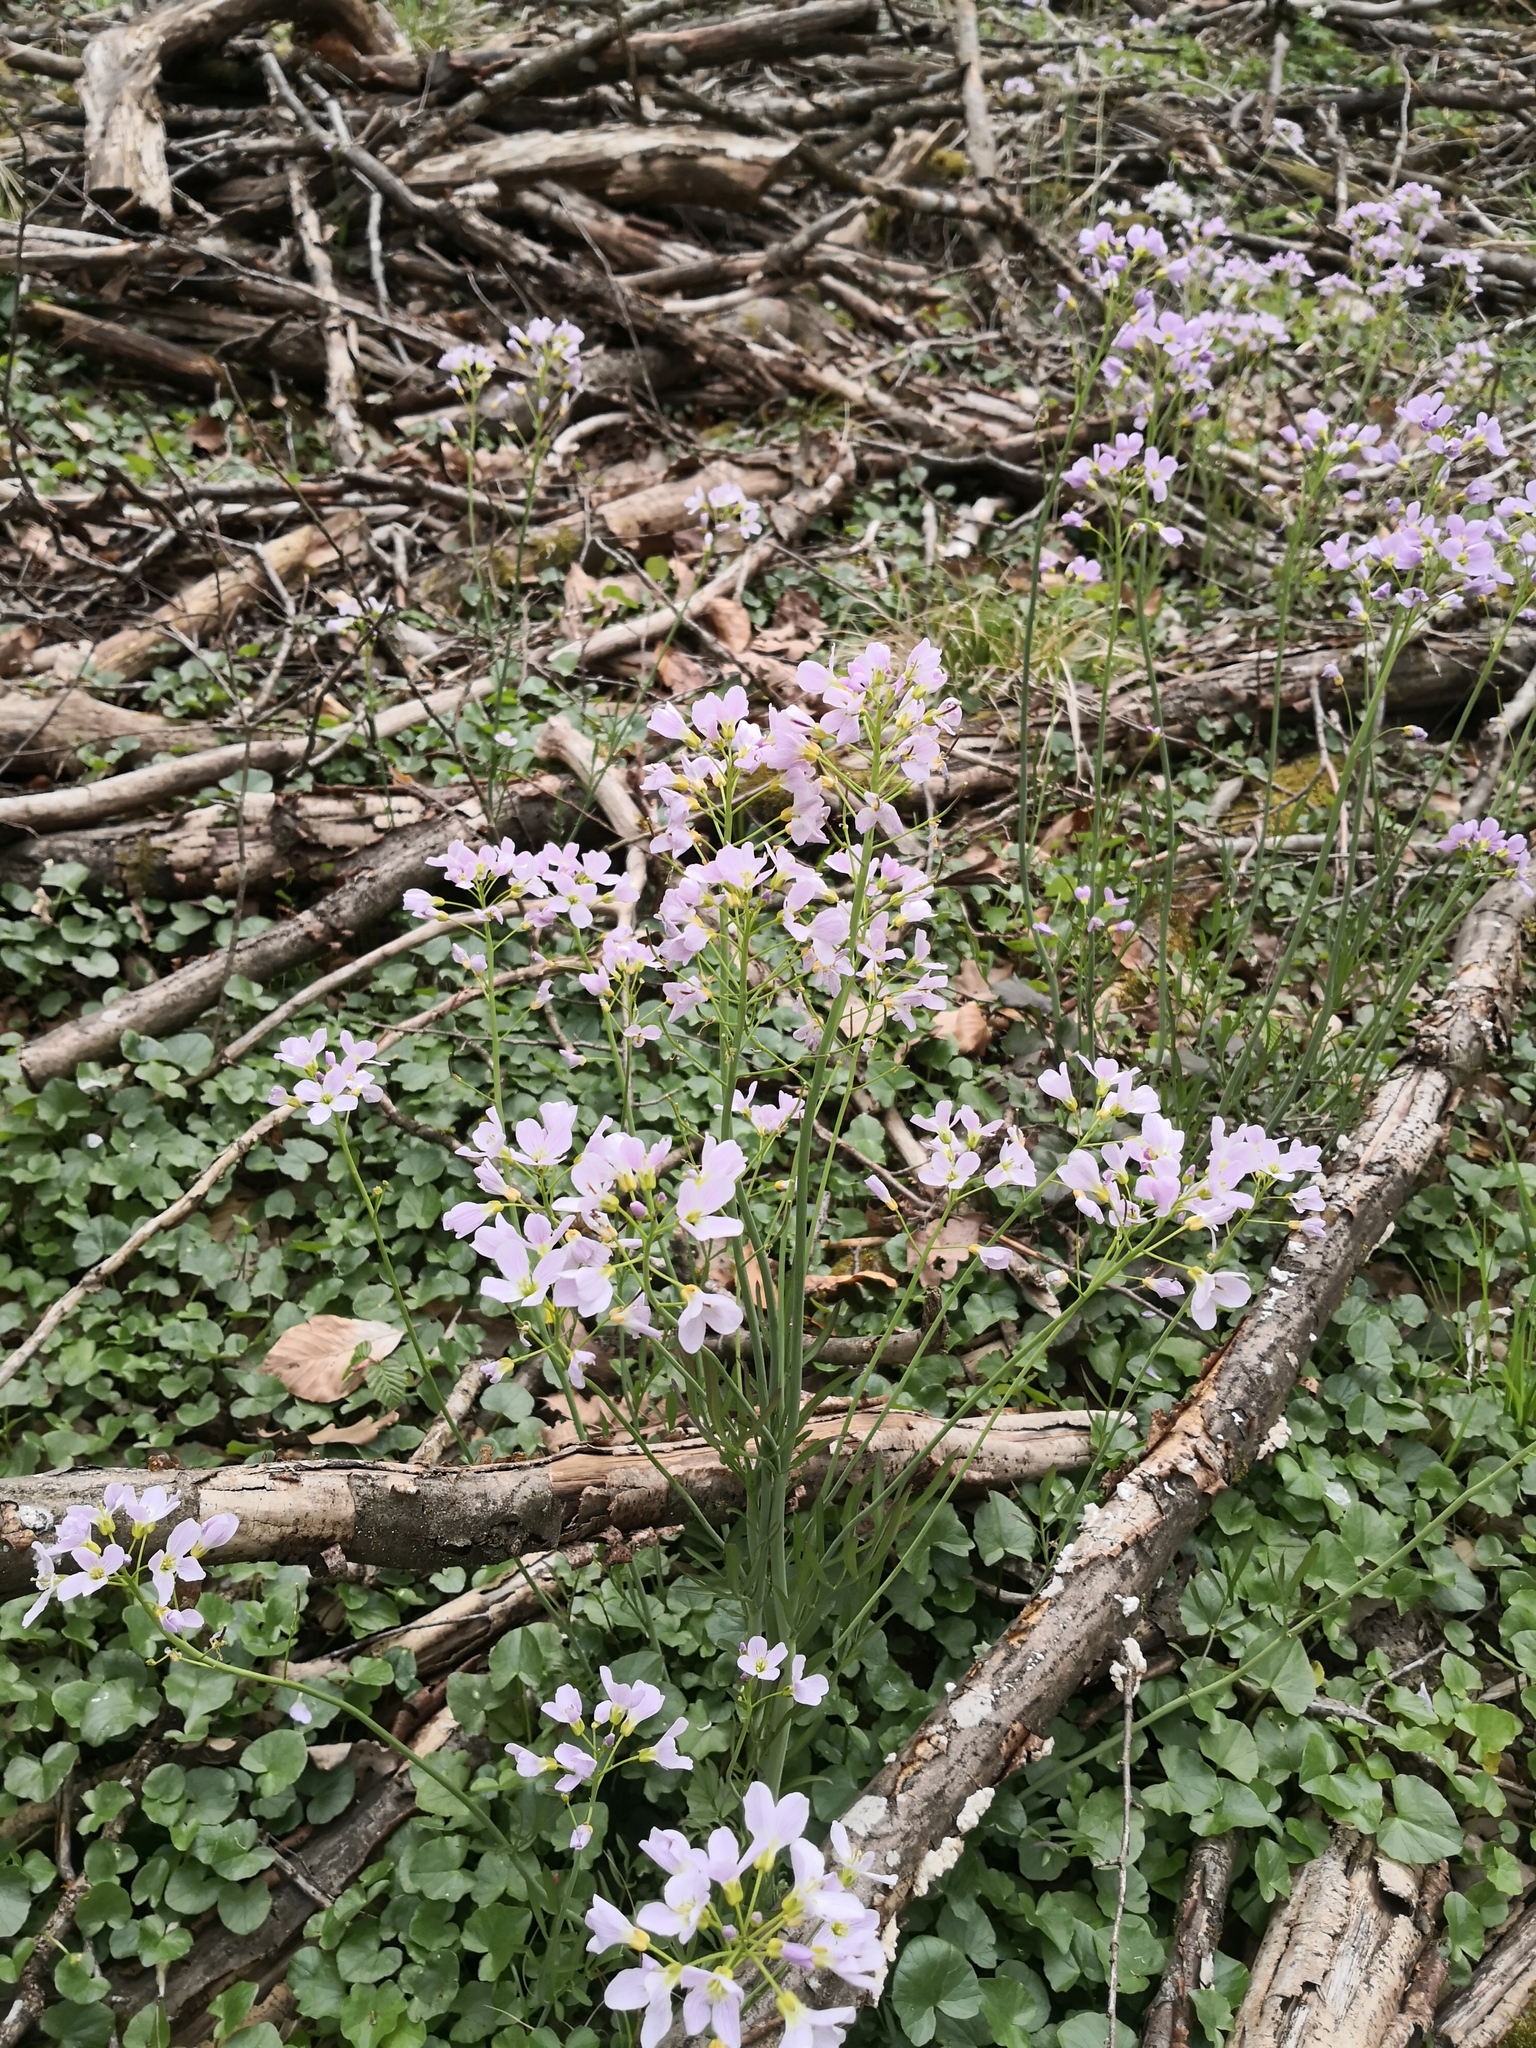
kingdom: Plantae
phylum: Tracheophyta
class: Magnoliopsida
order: Brassicales
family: Brassicaceae
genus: Cardamine
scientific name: Cardamine pratensis
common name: Cuckoo flower
